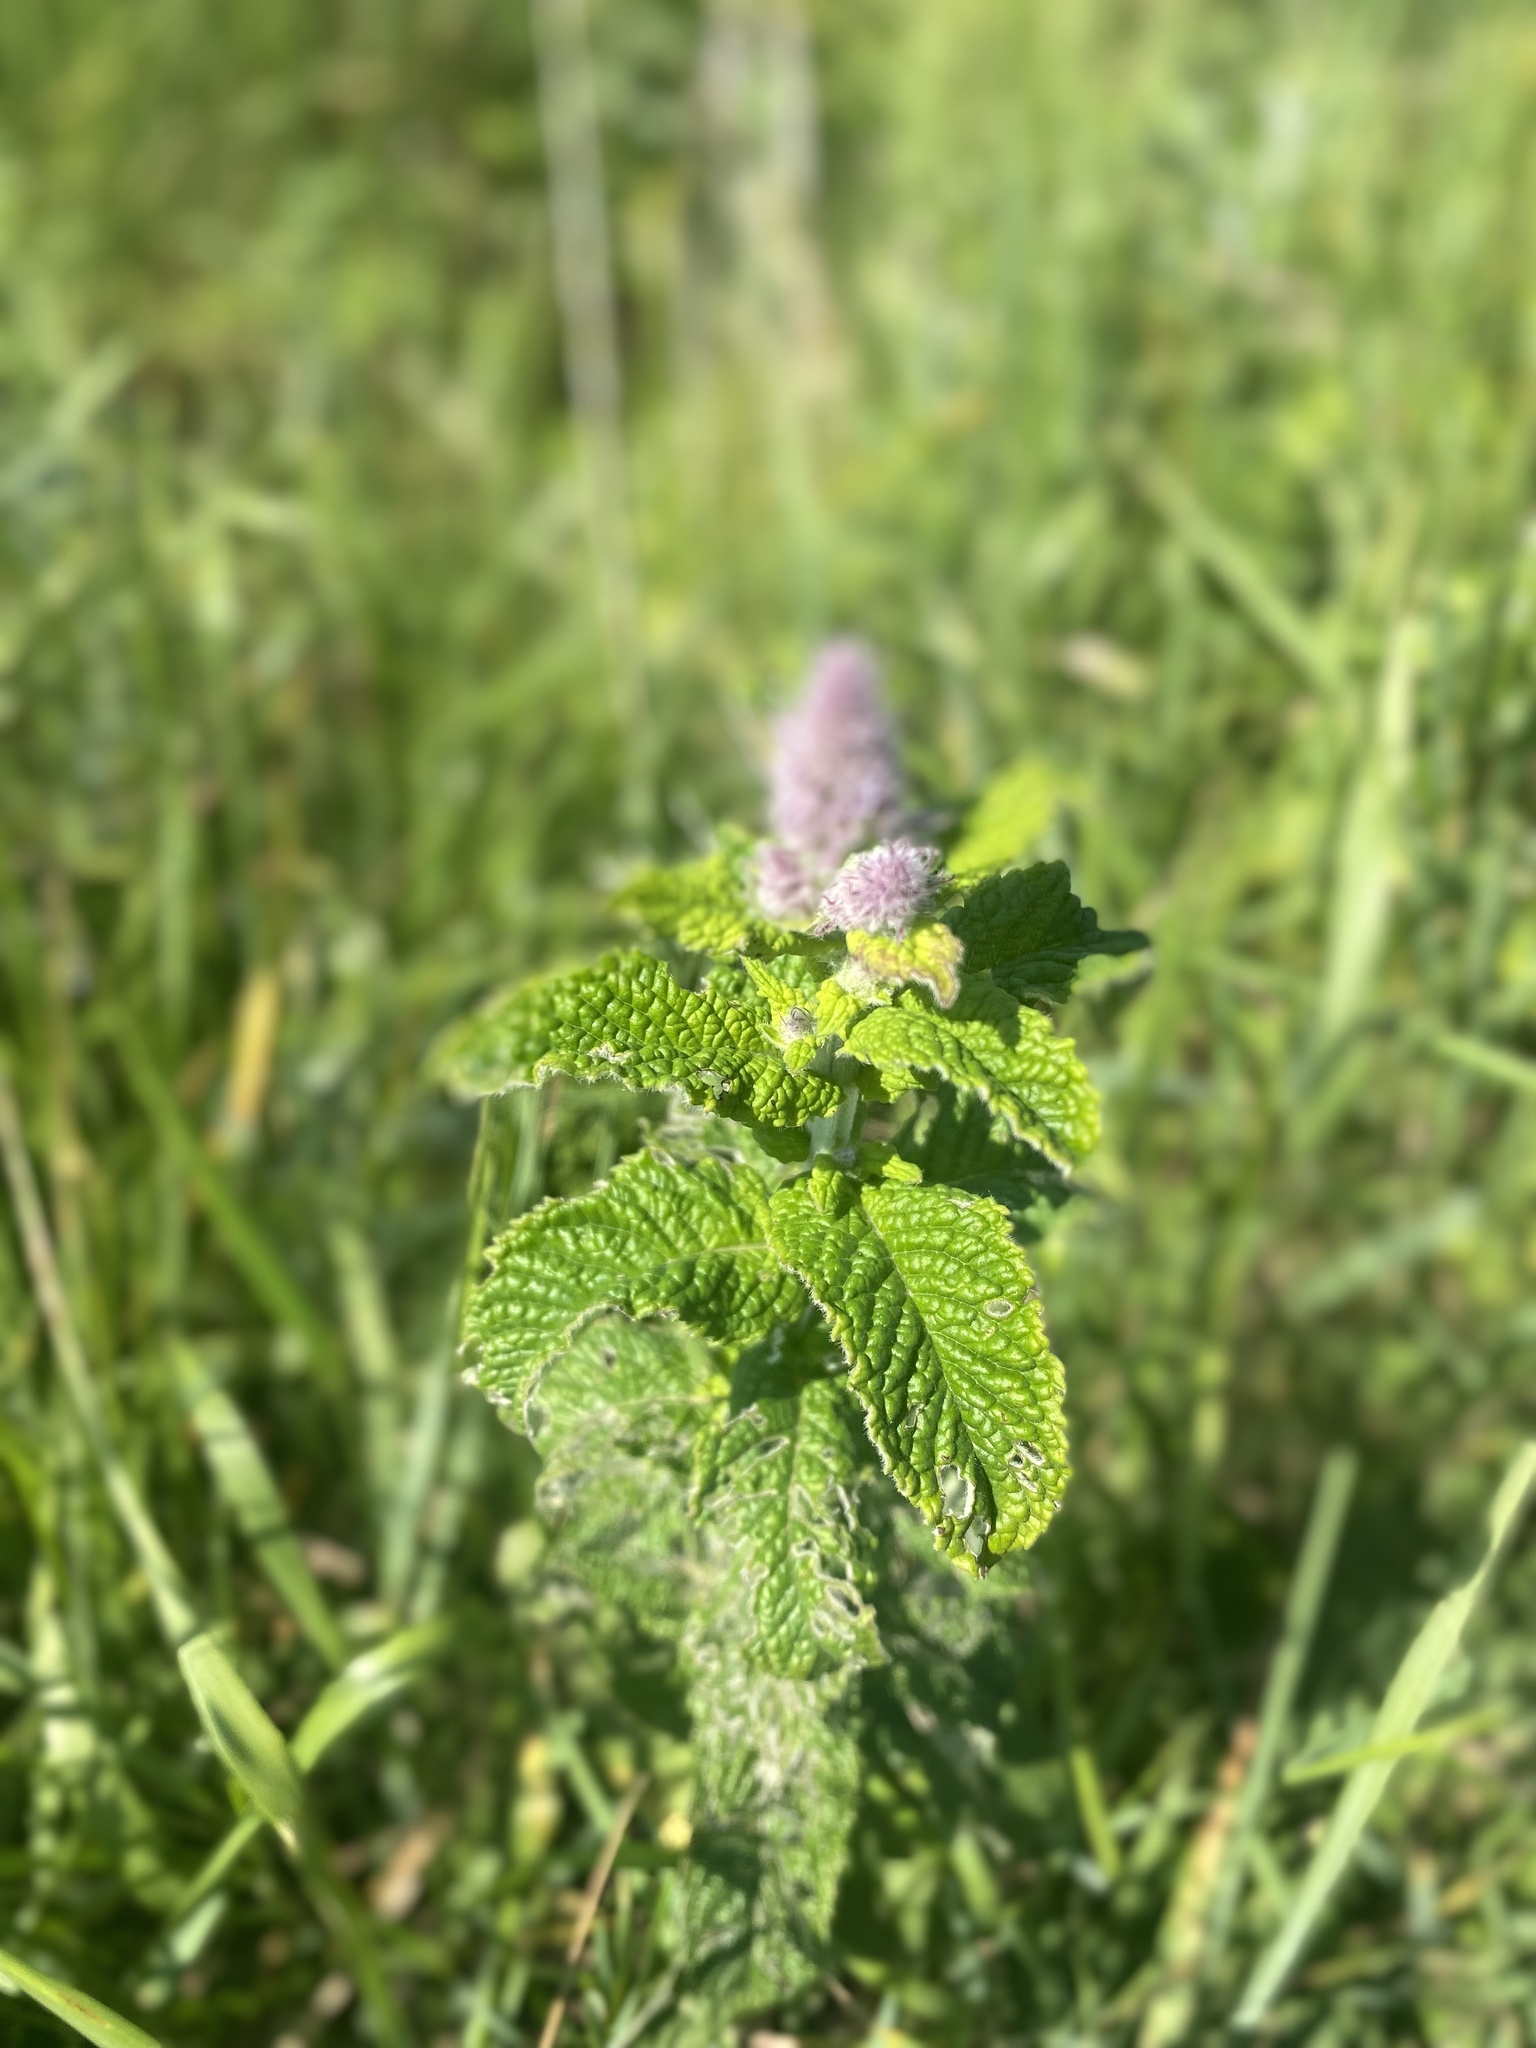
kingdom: Plantae
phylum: Tracheophyta
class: Magnoliopsida
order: Lamiales
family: Lamiaceae
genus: Mentha
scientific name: Mentha longifolia
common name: Horse mint
